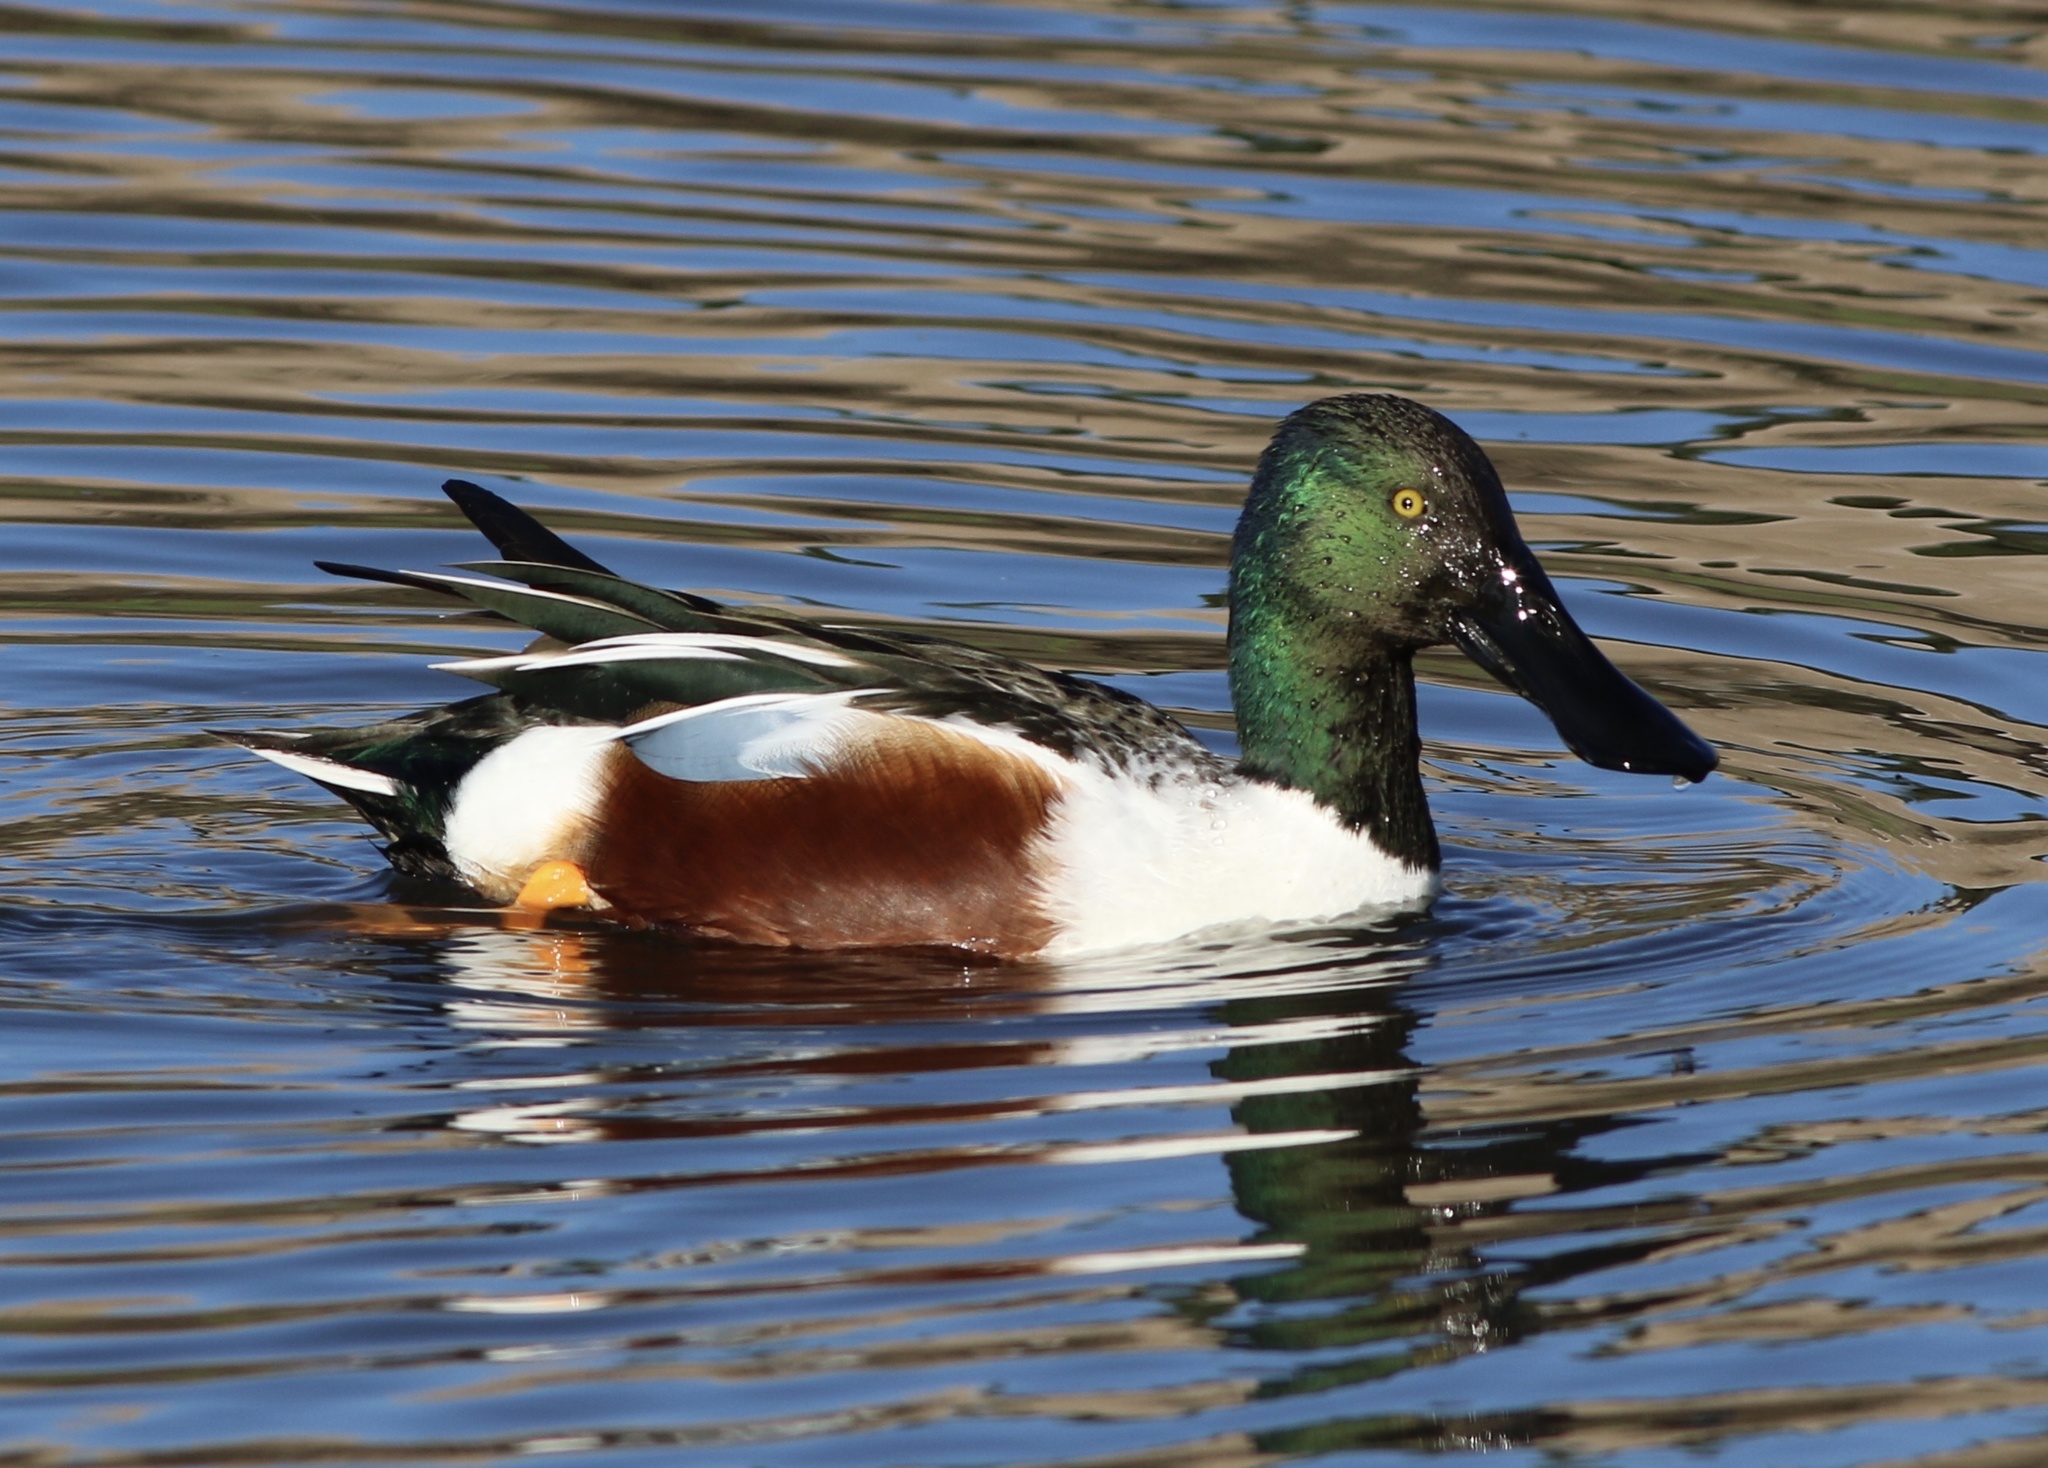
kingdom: Animalia
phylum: Chordata
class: Aves
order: Anseriformes
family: Anatidae
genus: Spatula
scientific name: Spatula clypeata
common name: Northern shoveler
